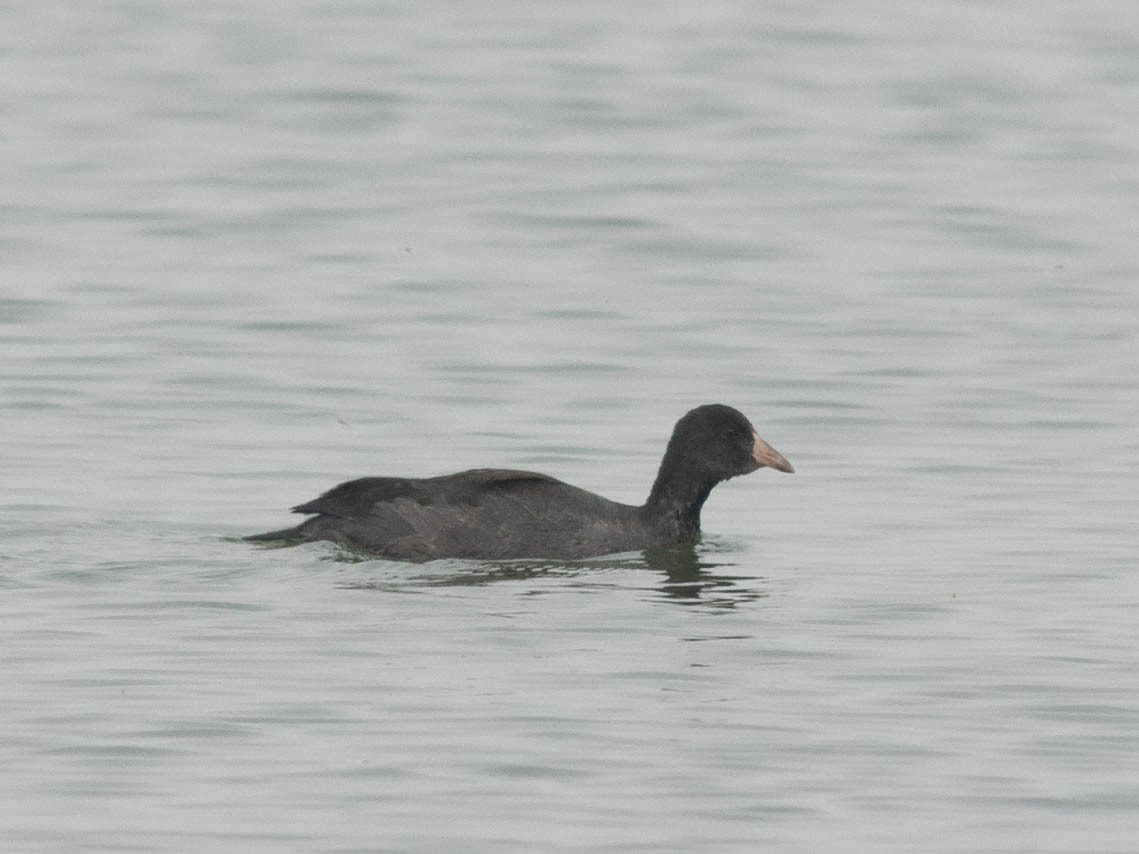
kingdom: Animalia
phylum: Chordata
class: Aves
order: Gruiformes
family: Rallidae
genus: Fulica
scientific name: Fulica americana
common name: American coot
